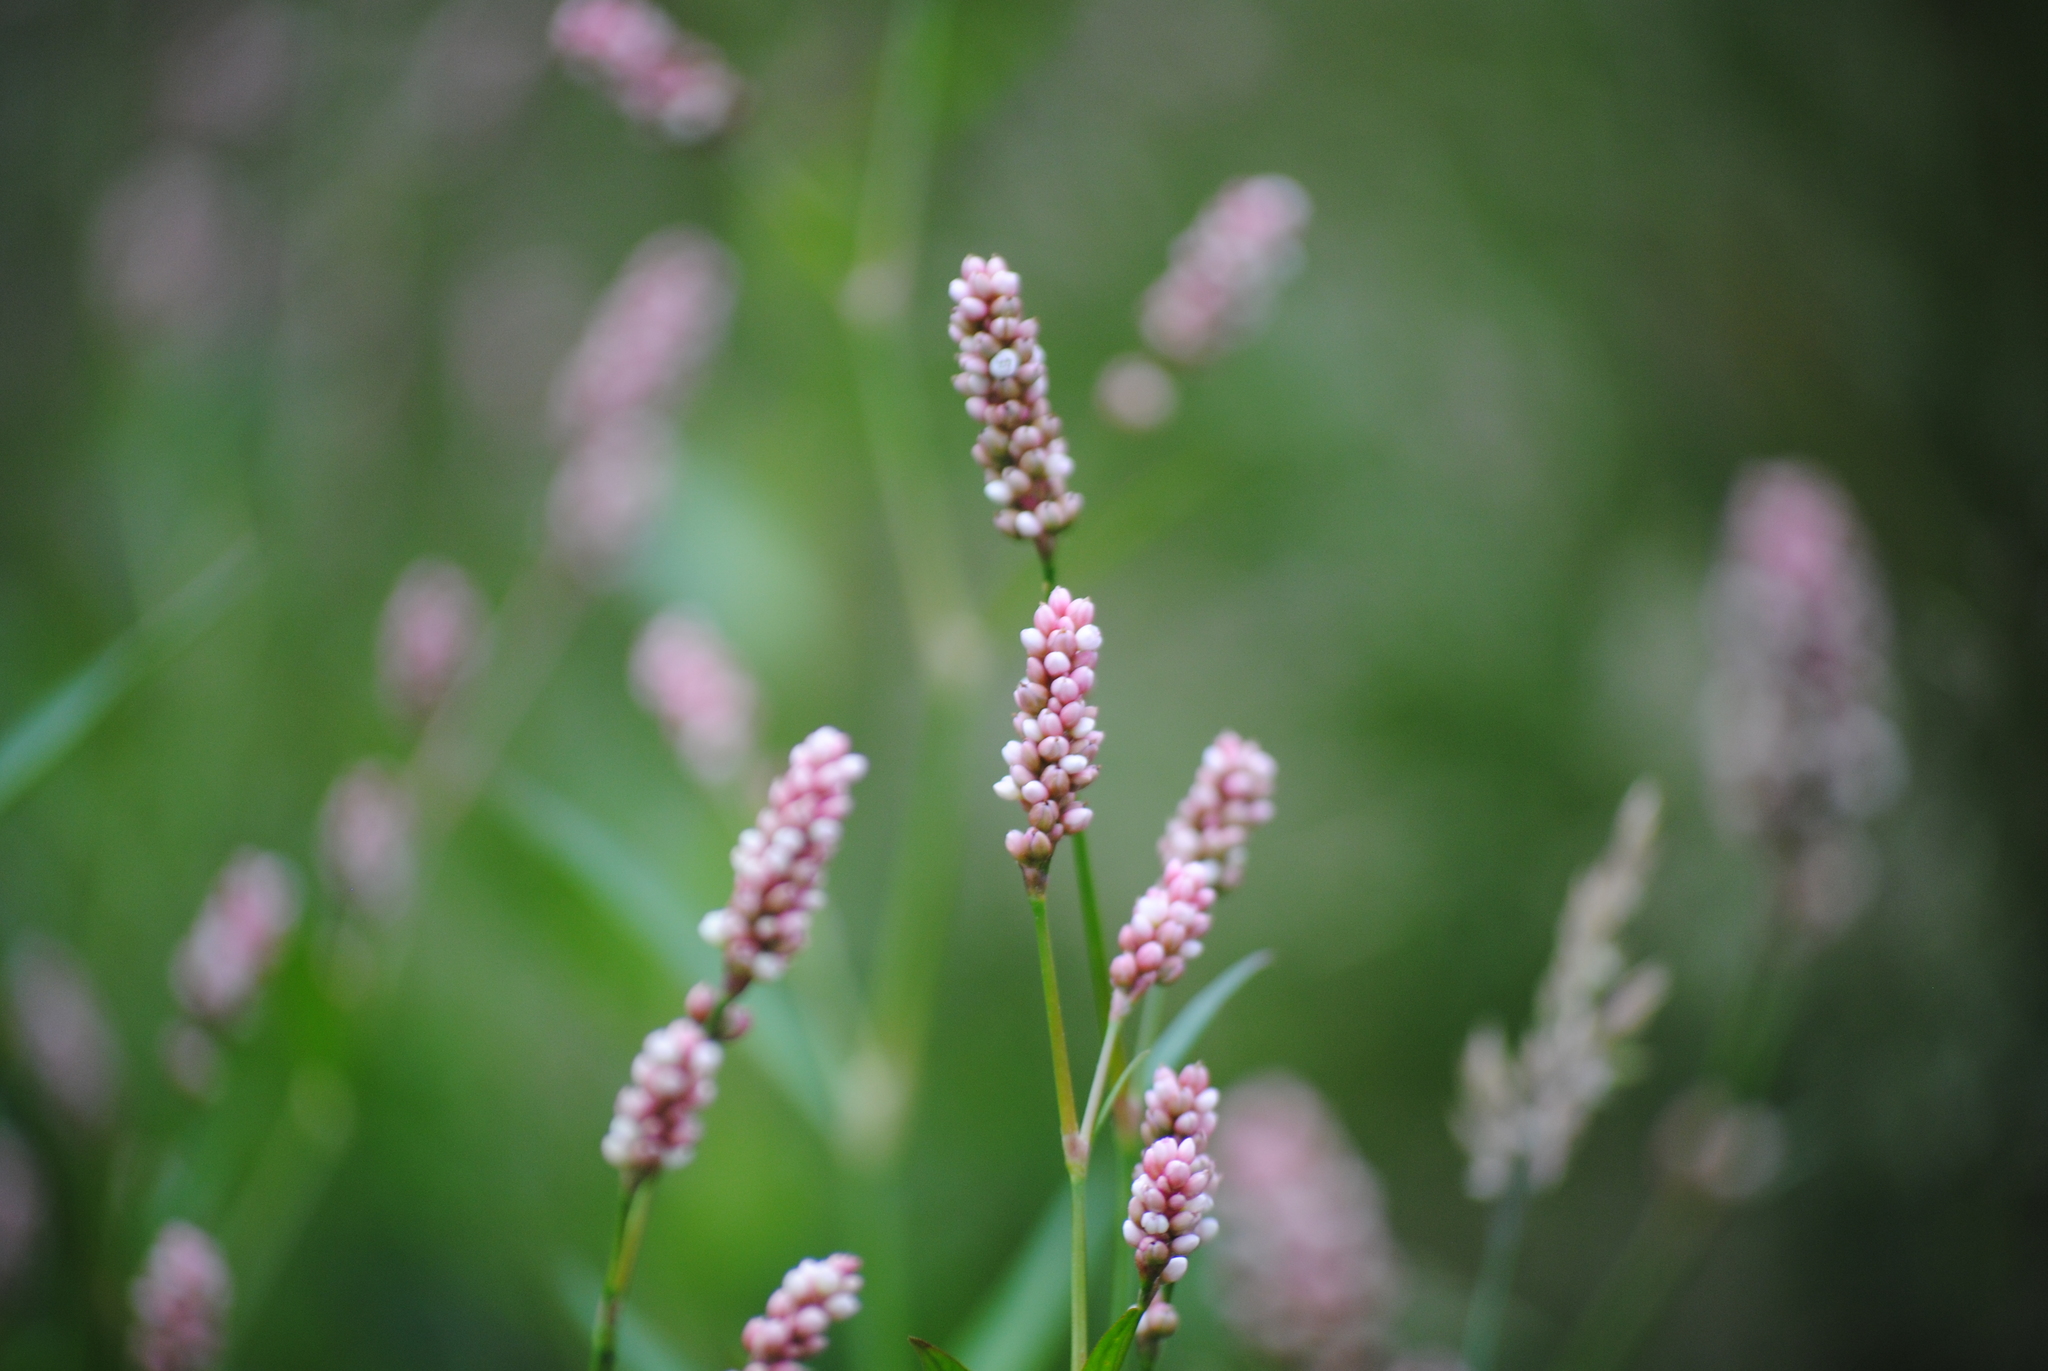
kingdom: Plantae
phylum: Tracheophyta
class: Magnoliopsida
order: Caryophyllales
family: Polygonaceae
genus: Persicaria
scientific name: Persicaria maculosa
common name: Redshank
